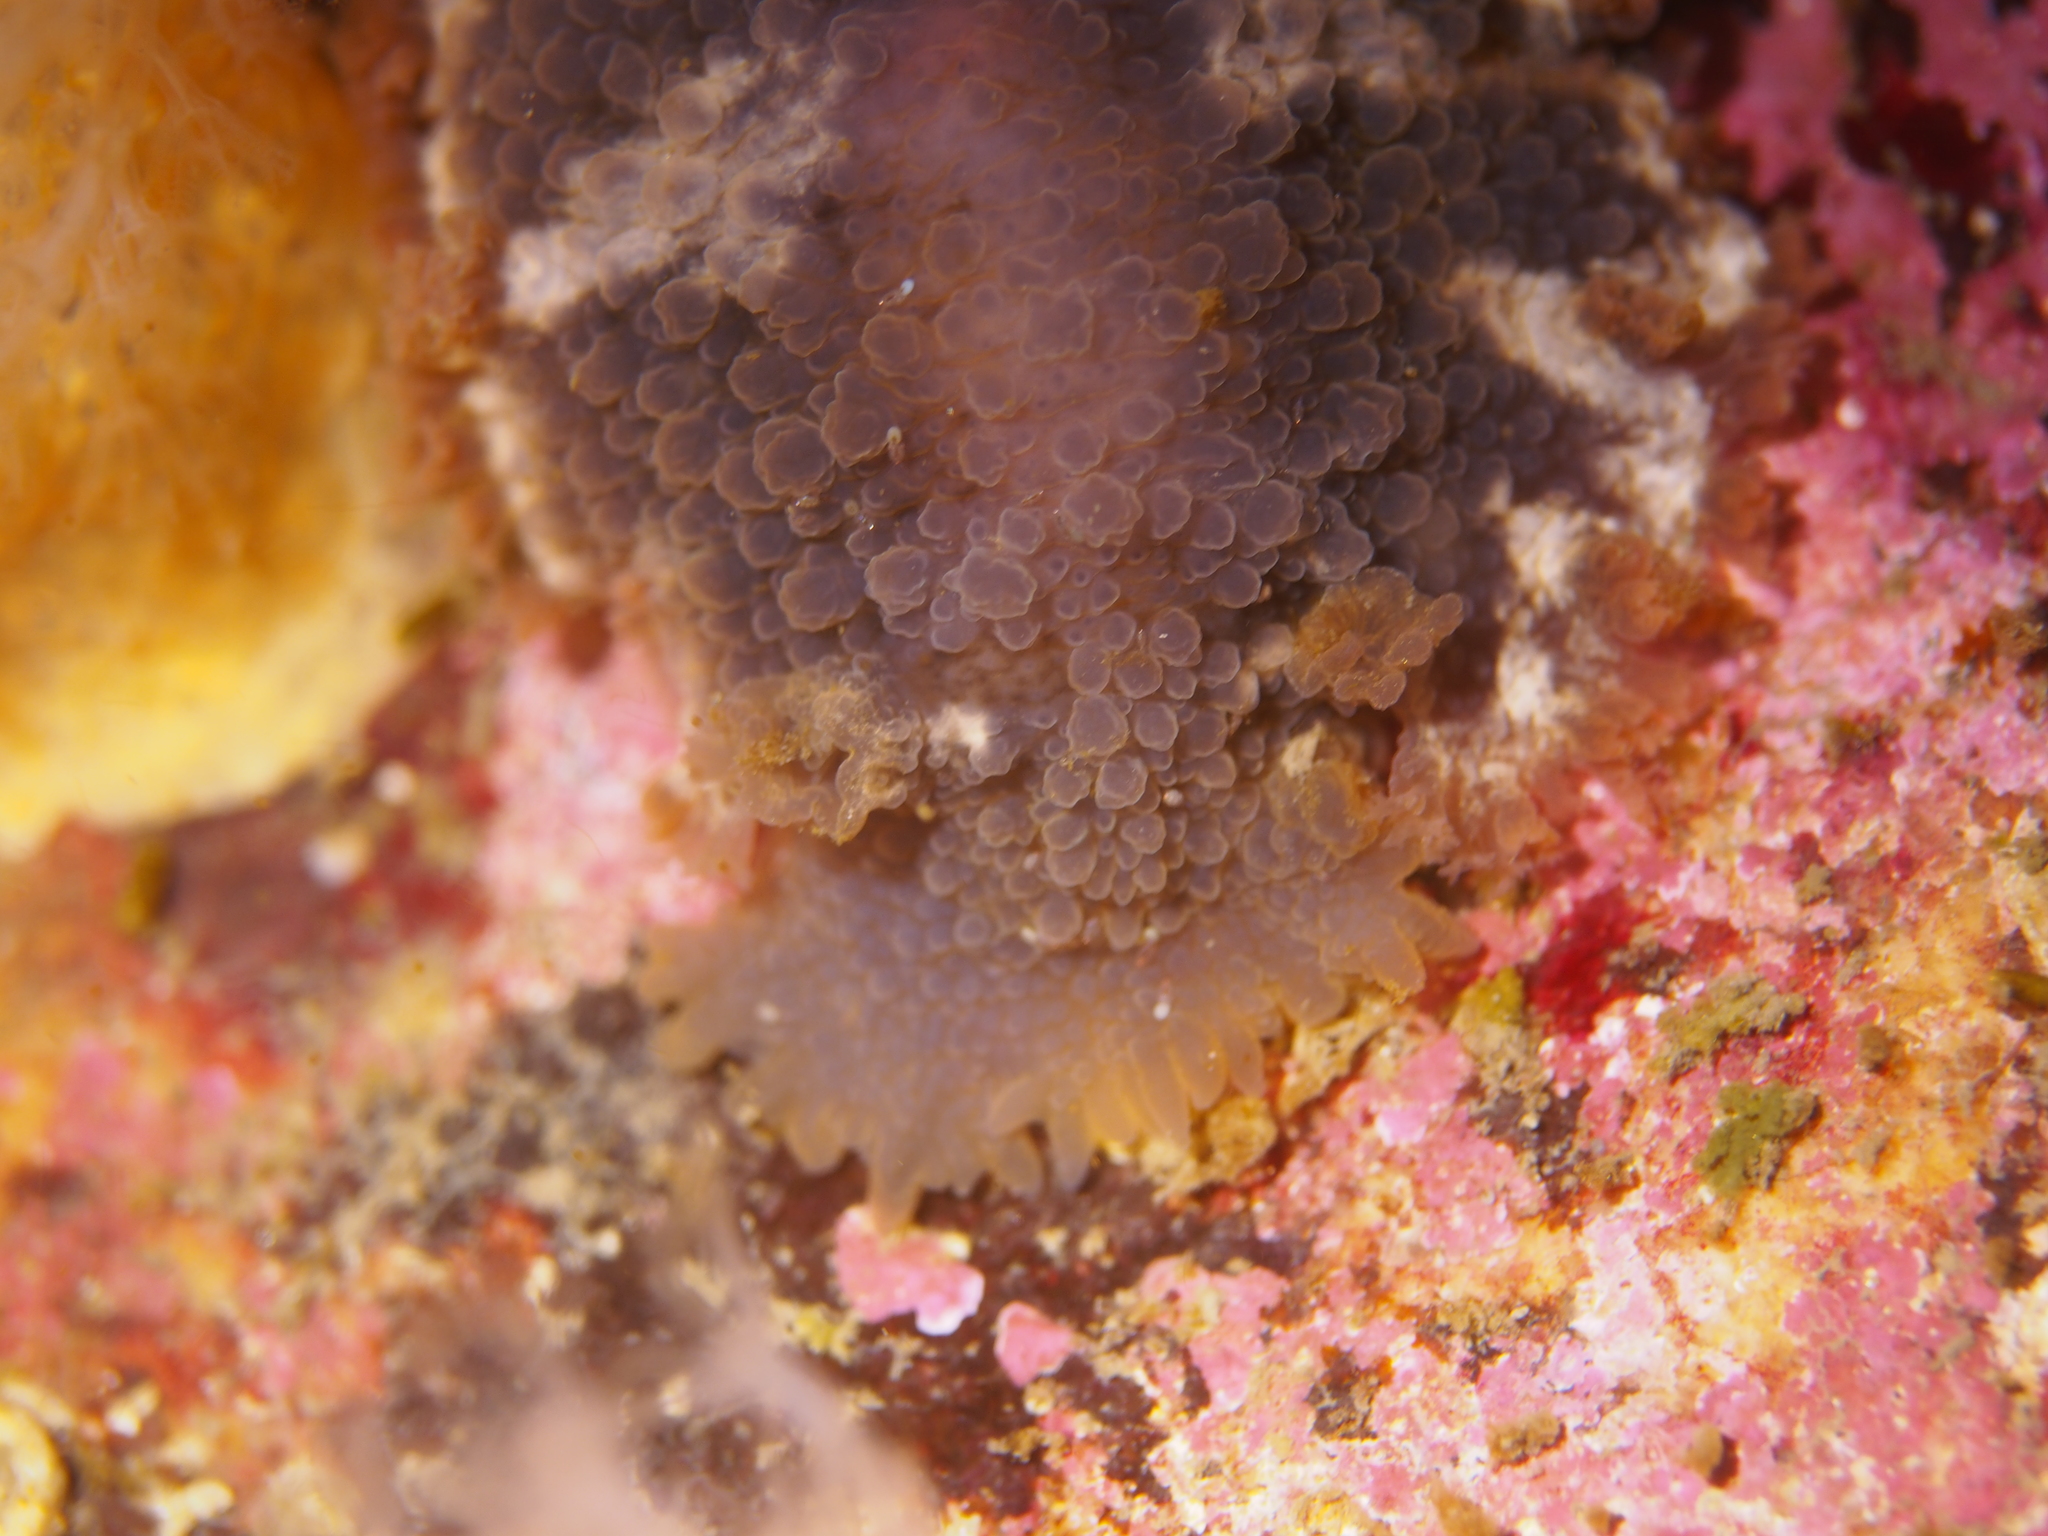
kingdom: Animalia
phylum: Mollusca
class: Gastropoda
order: Nudibranchia
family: Tritoniidae
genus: Tritonia
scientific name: Tritonia hombergii
